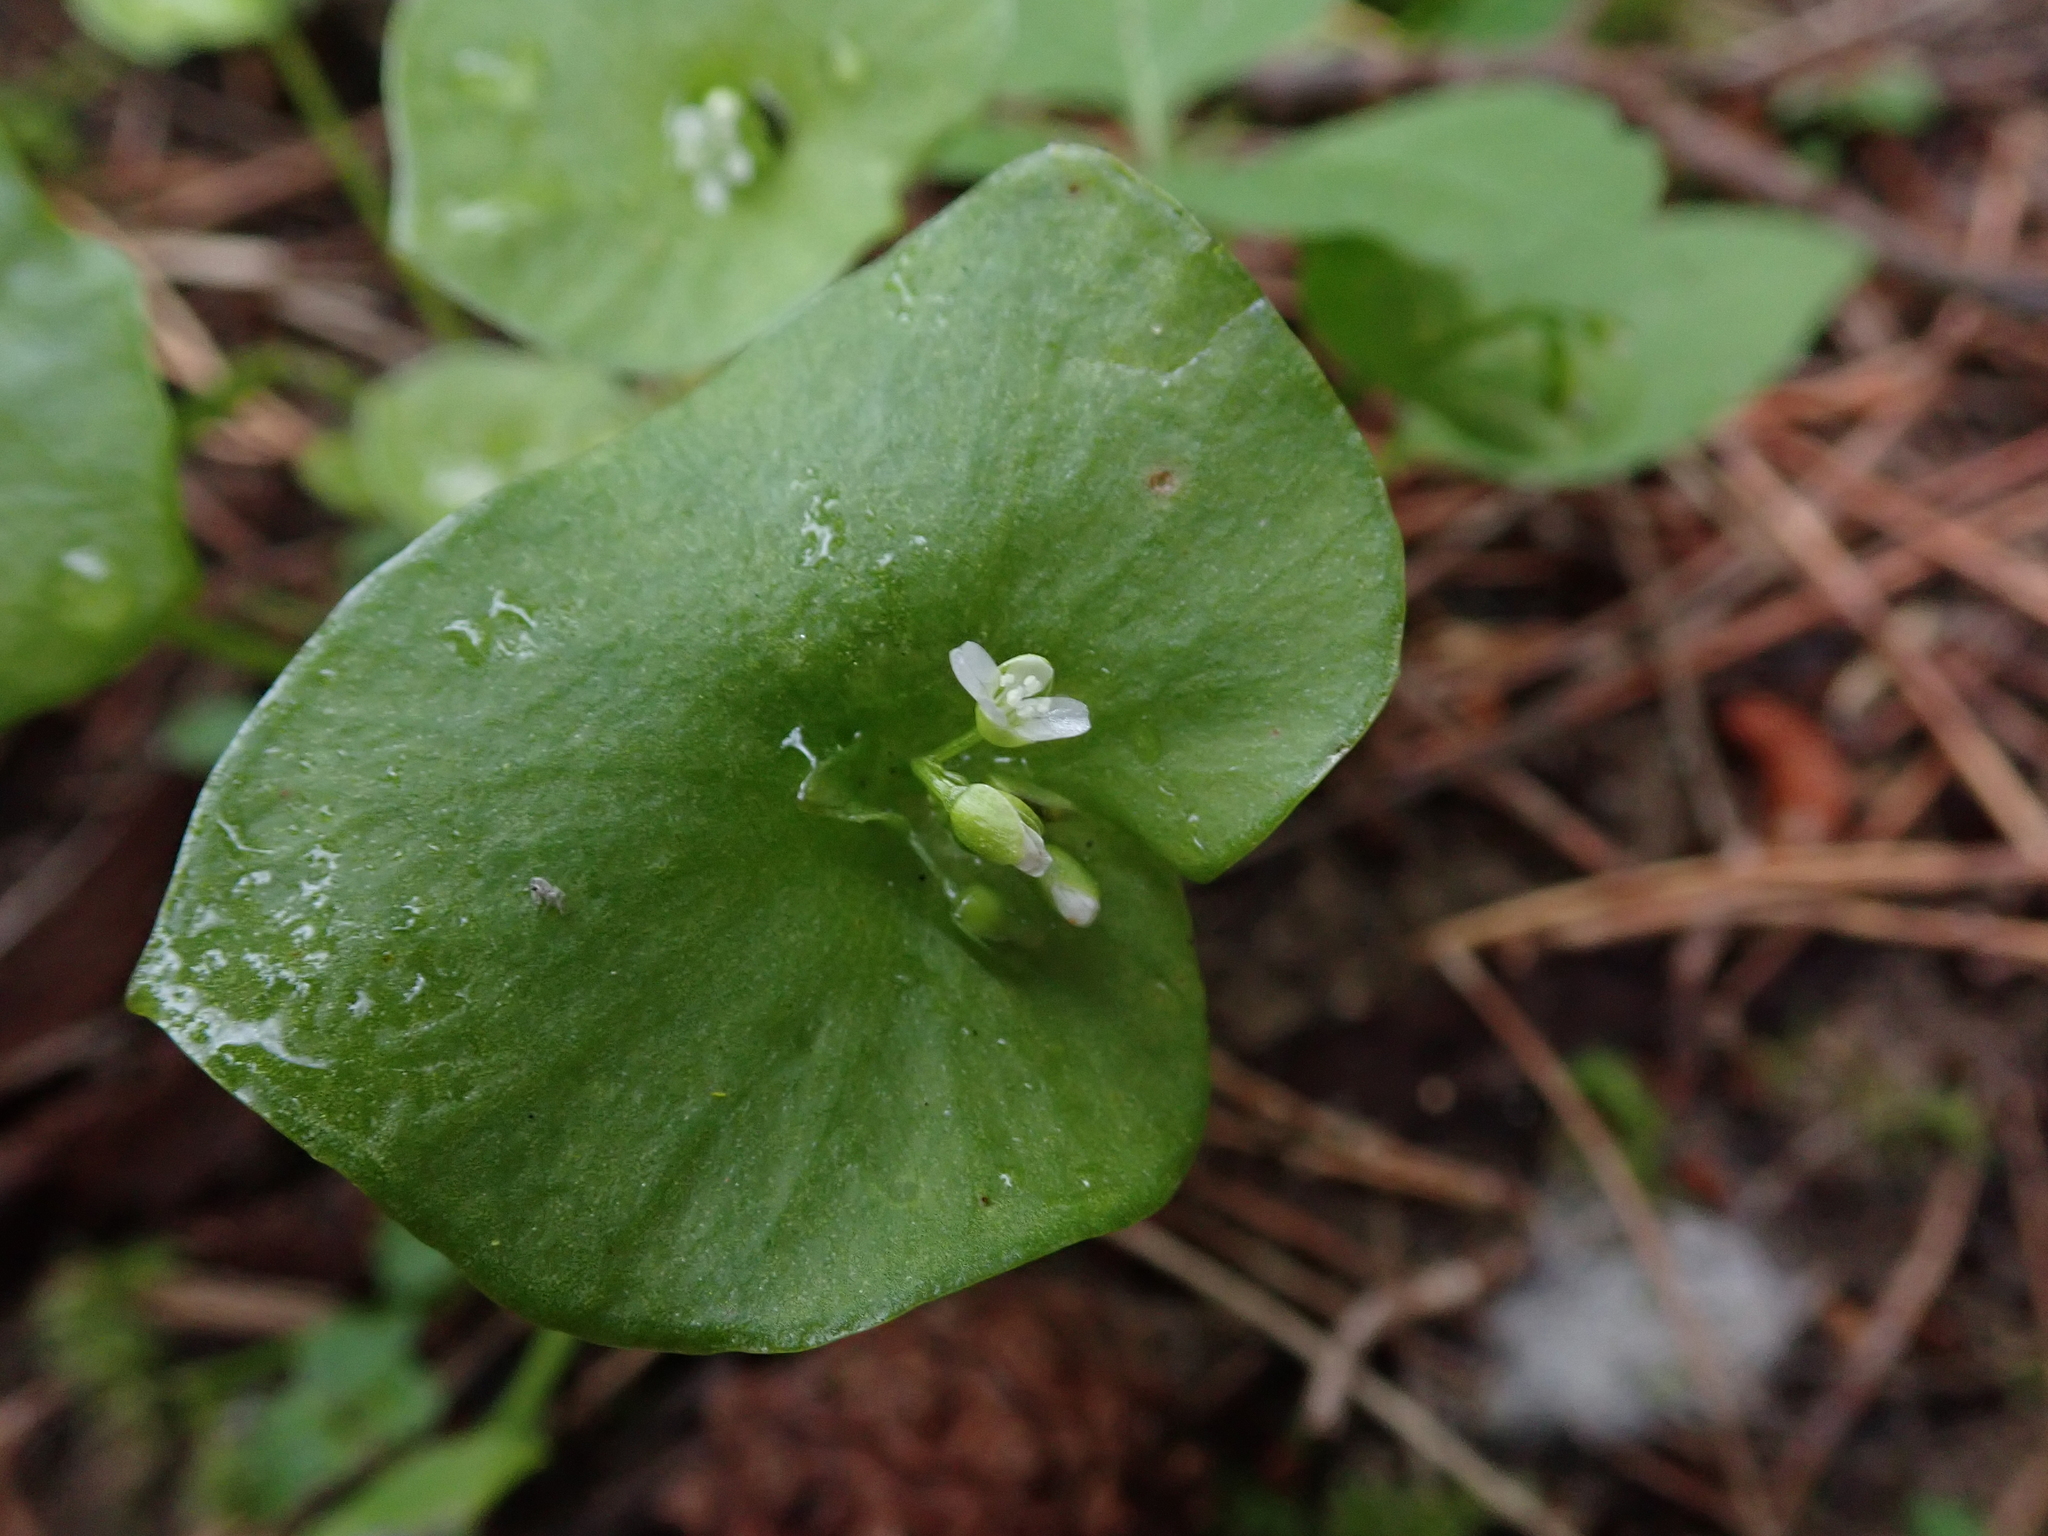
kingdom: Plantae
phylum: Tracheophyta
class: Magnoliopsida
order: Caryophyllales
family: Montiaceae
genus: Claytonia
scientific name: Claytonia perfoliata
